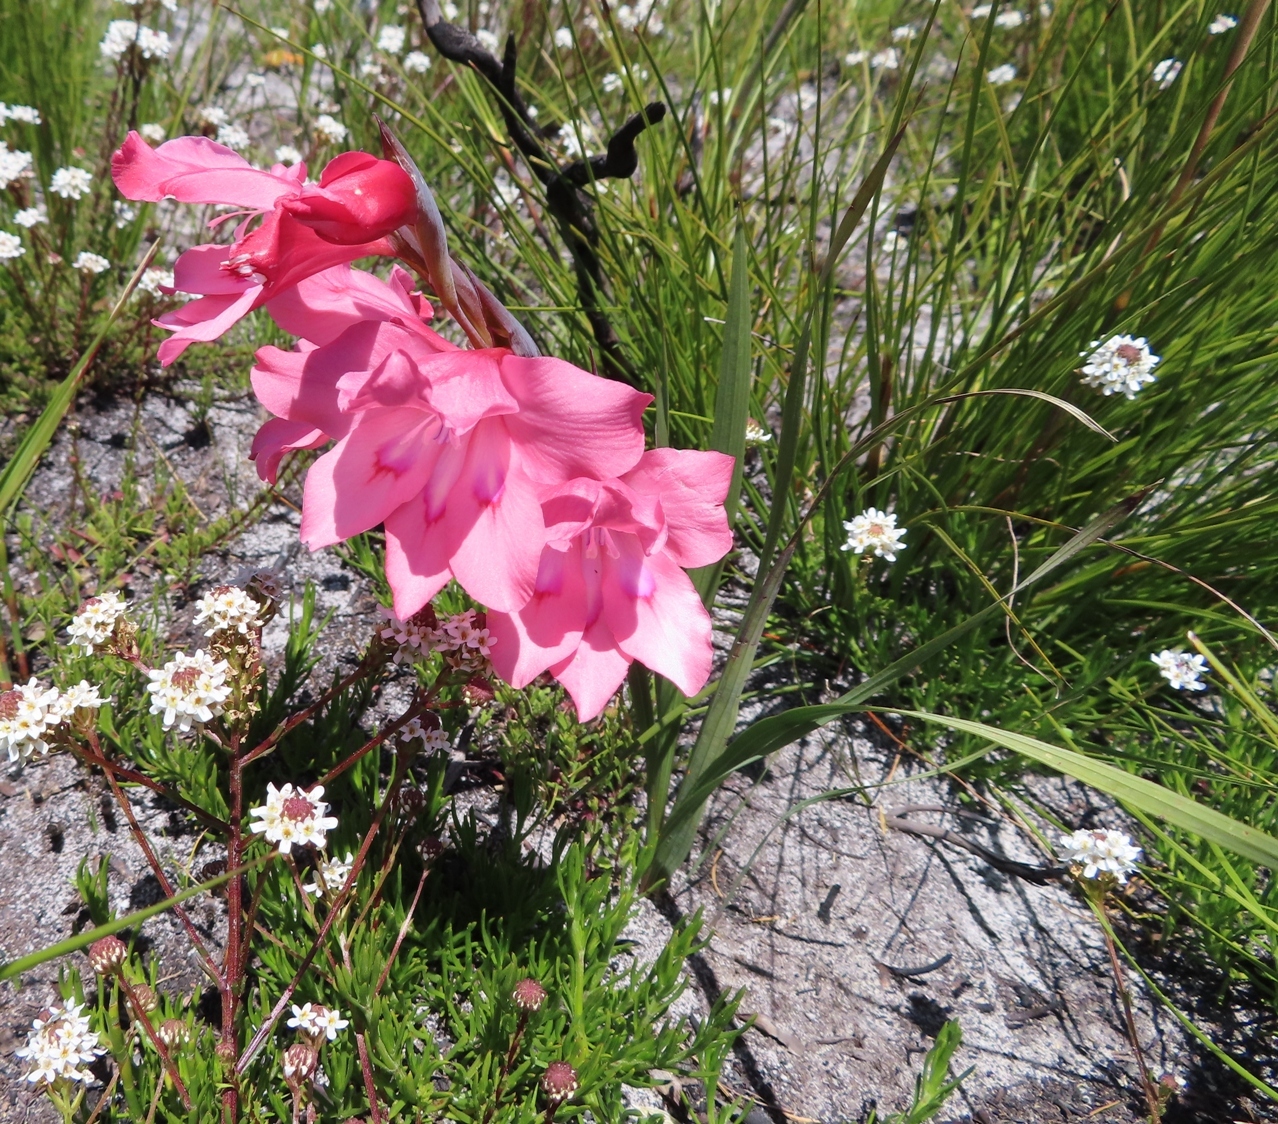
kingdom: Plantae
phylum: Tracheophyta
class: Liliopsida
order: Asparagales
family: Iridaceae
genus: Gladiolus
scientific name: Gladiolus carneus
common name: Painted-lady
